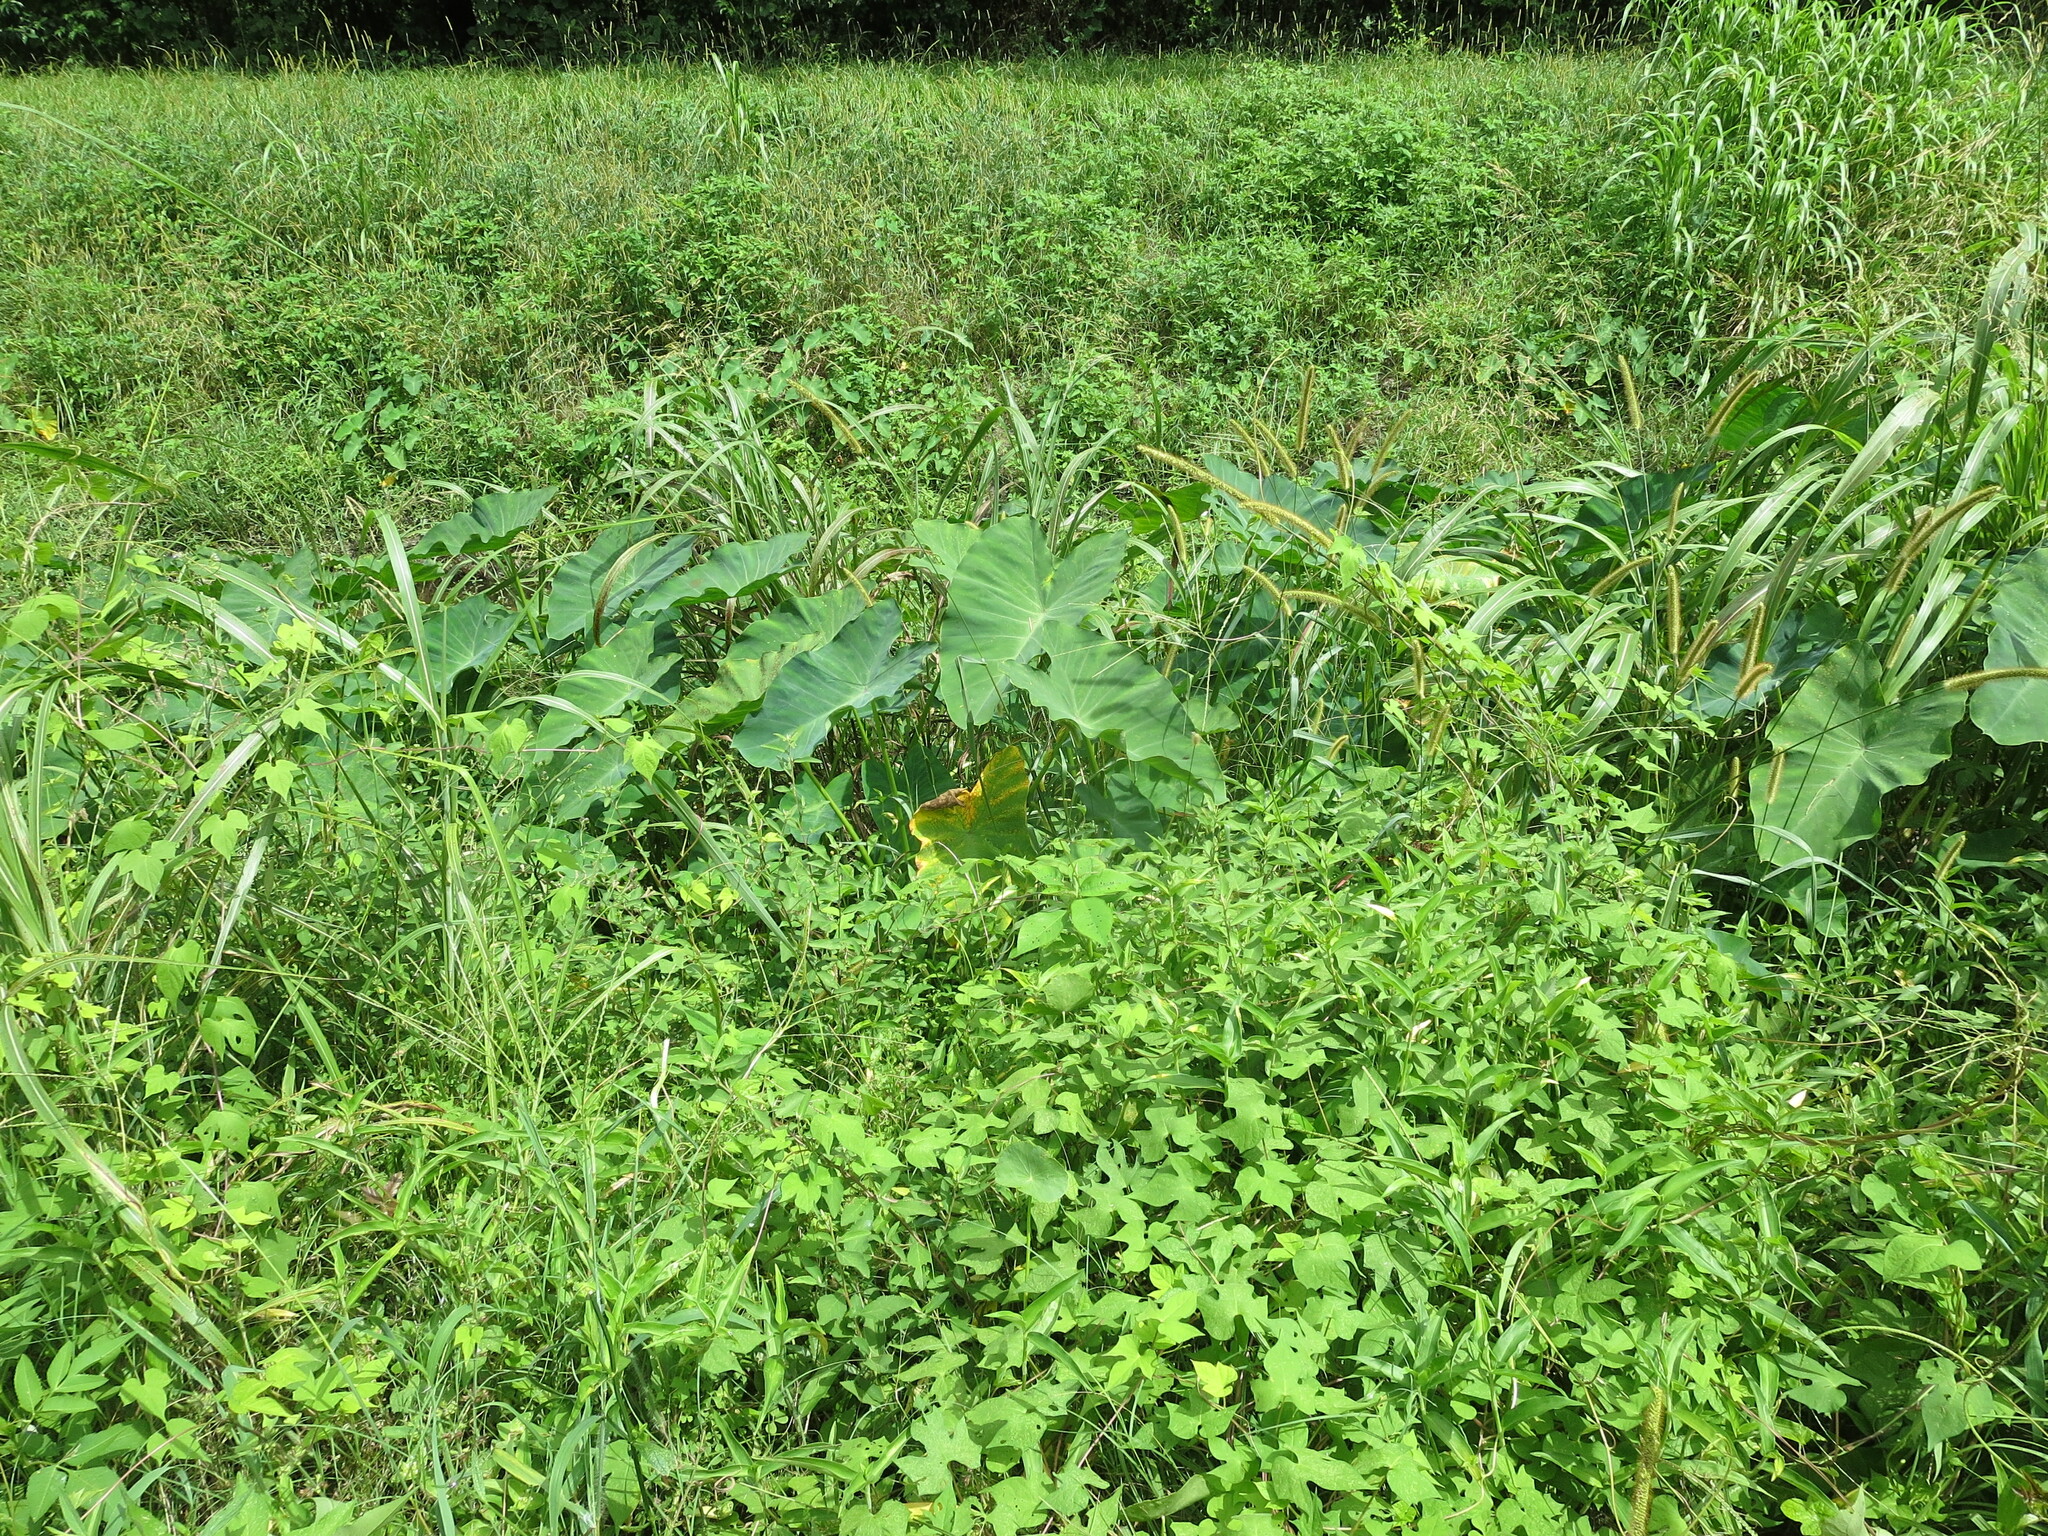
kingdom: Plantae
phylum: Tracheophyta
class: Liliopsida
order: Alismatales
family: Araceae
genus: Colocasia
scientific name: Colocasia esculenta
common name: Taro
